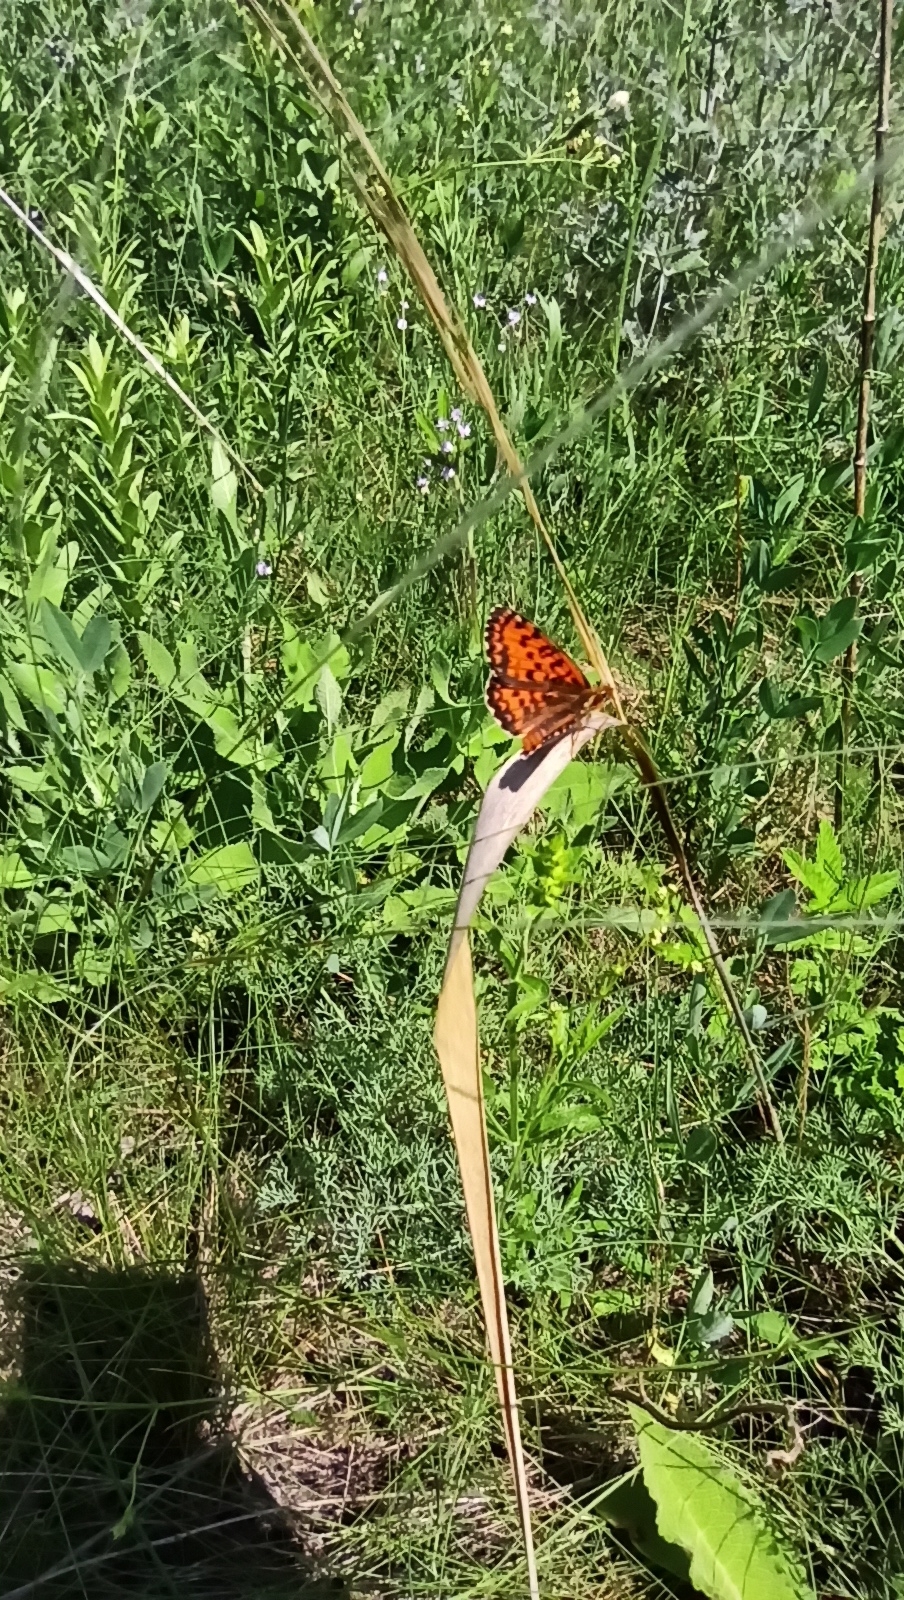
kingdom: Animalia
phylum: Arthropoda
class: Insecta
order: Lepidoptera
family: Nymphalidae
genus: Melitaea
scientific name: Melitaea trivia
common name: Lesser spotted fritillary
